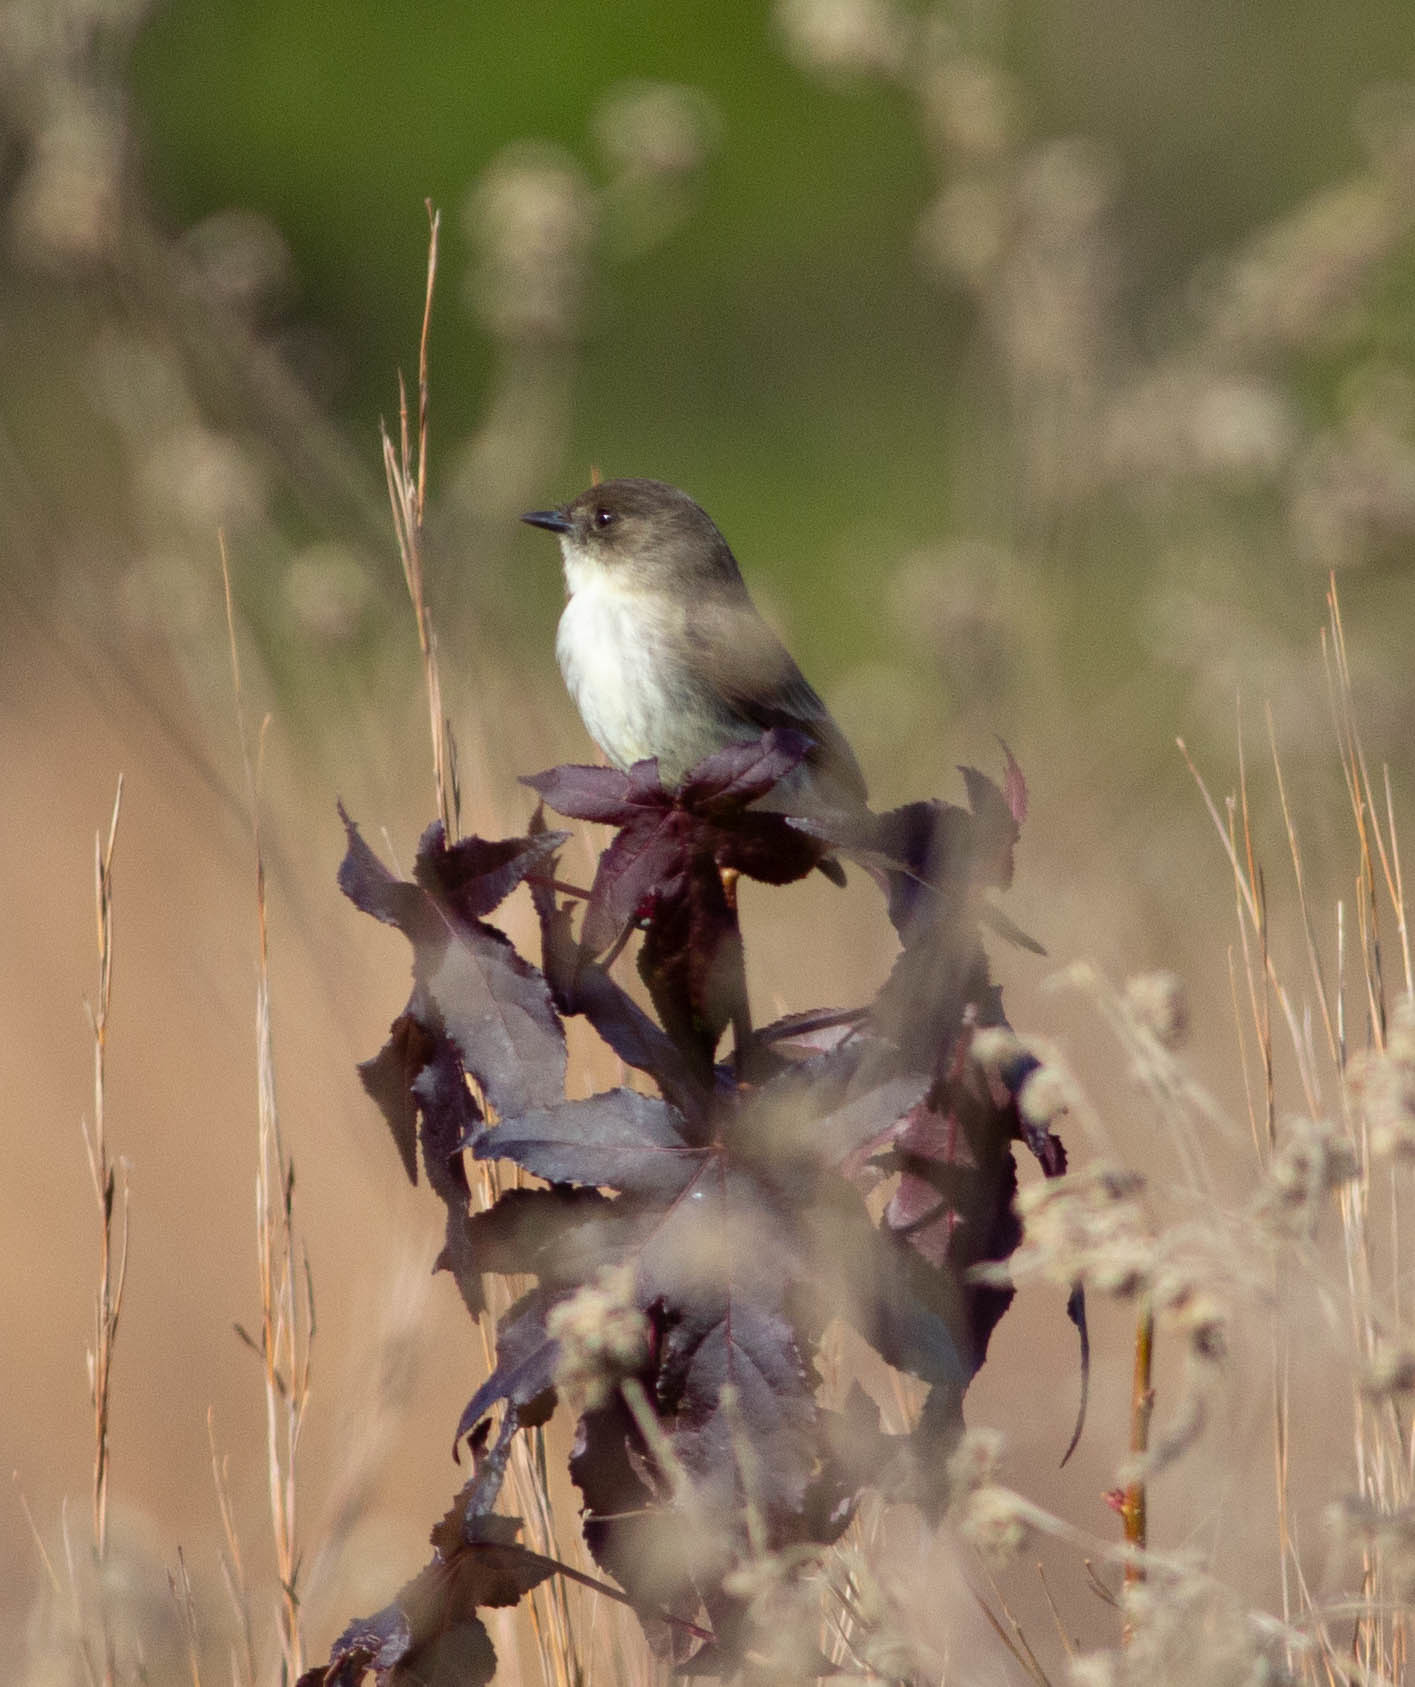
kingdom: Animalia
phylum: Chordata
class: Aves
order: Passeriformes
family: Tyrannidae
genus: Sayornis
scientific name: Sayornis phoebe
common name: Eastern phoebe
